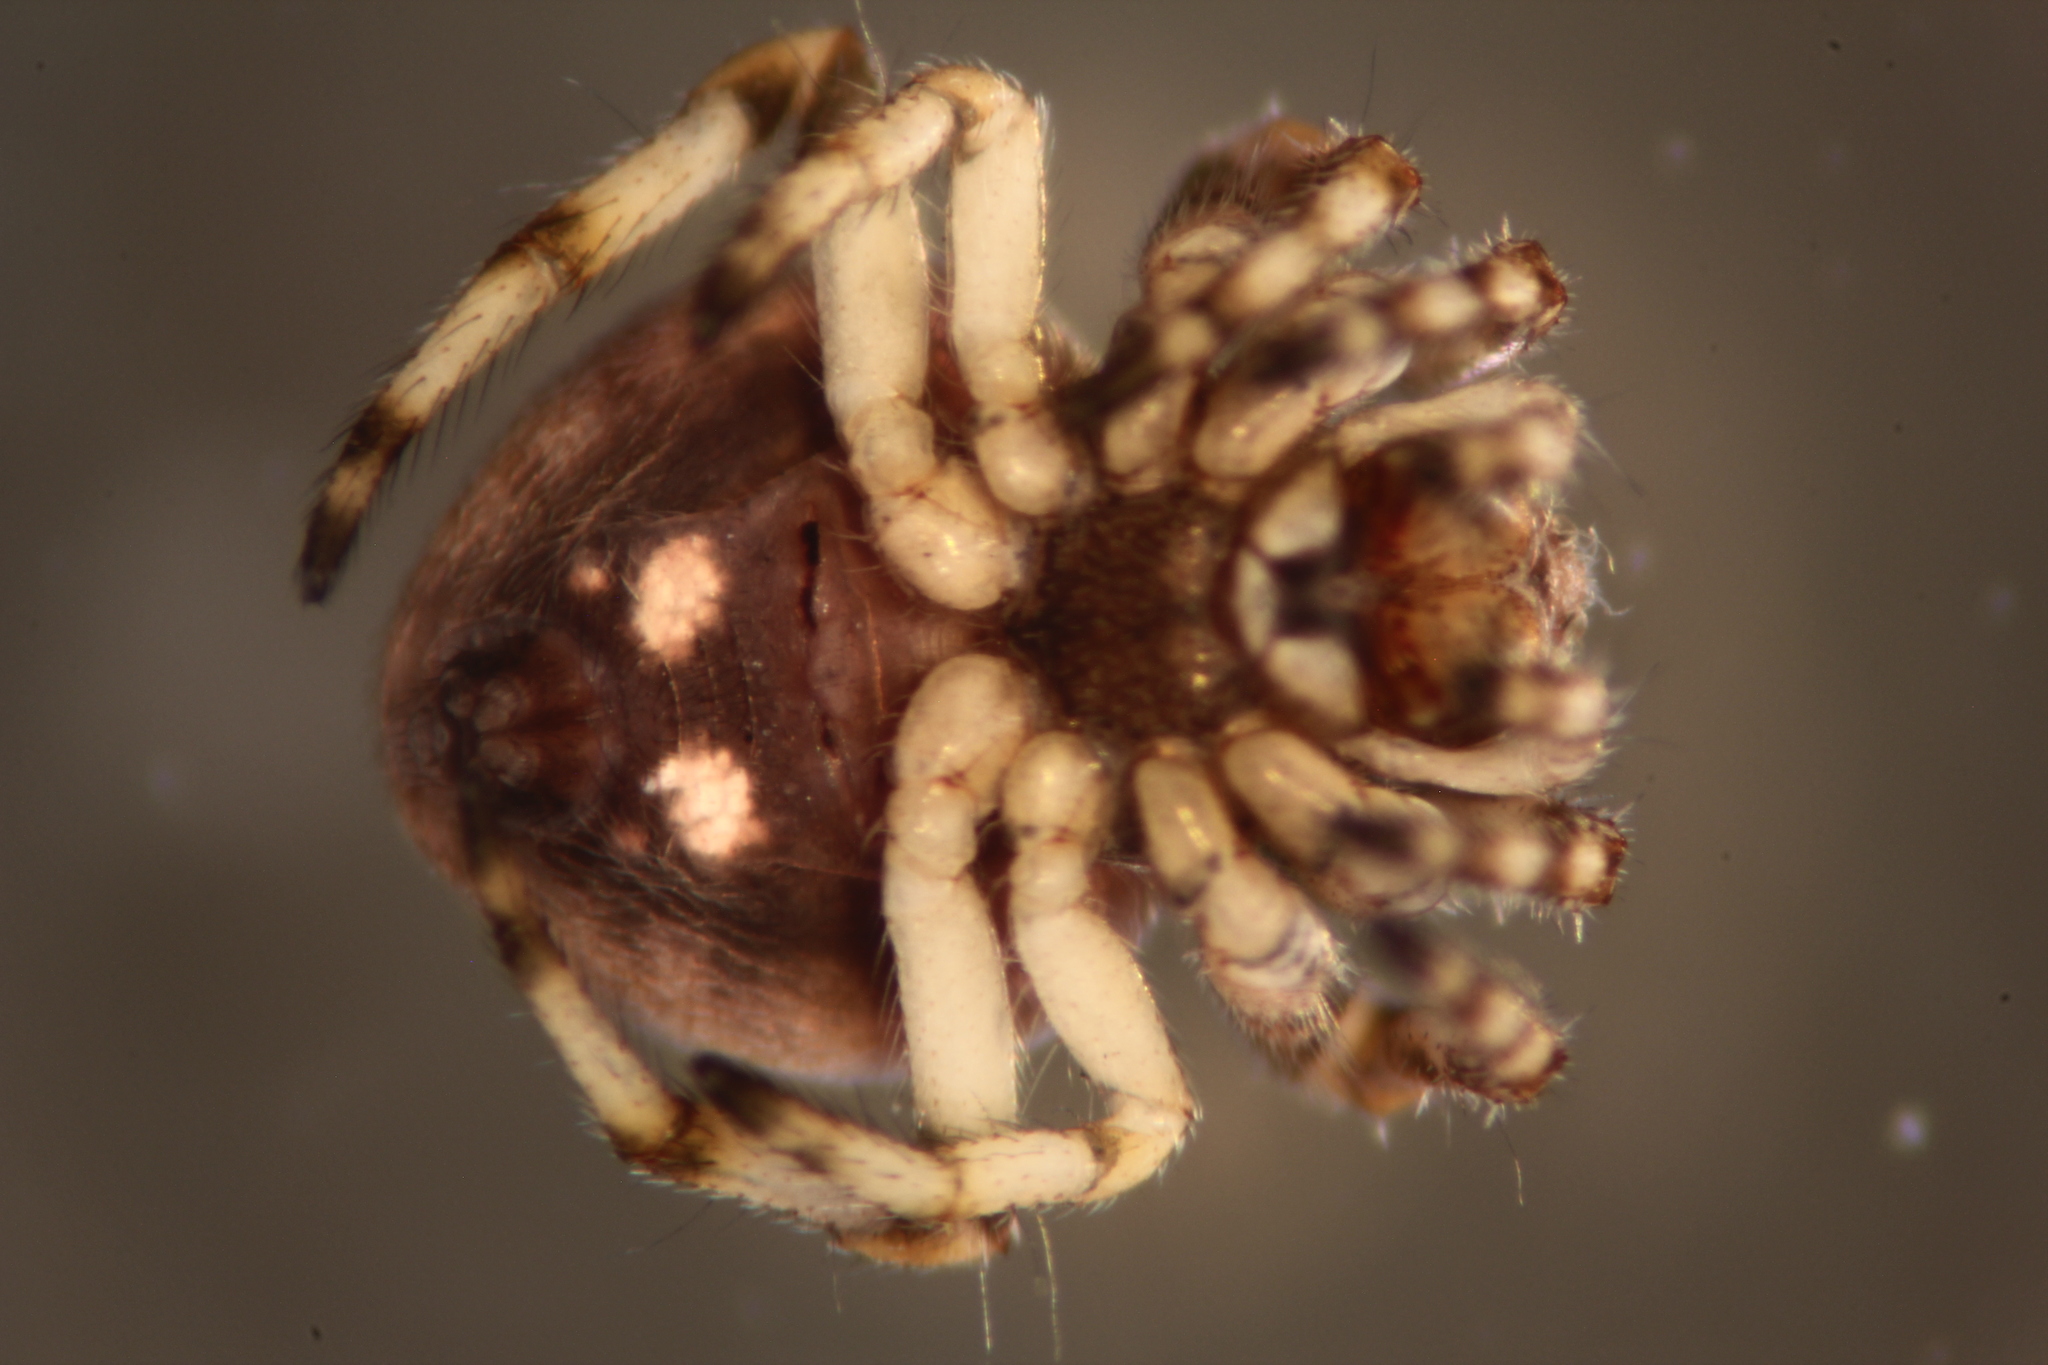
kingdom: Animalia
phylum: Arthropoda
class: Arachnida
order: Araneae
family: Araneidae
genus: Eriovixia
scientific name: Eriovixia excelsa
